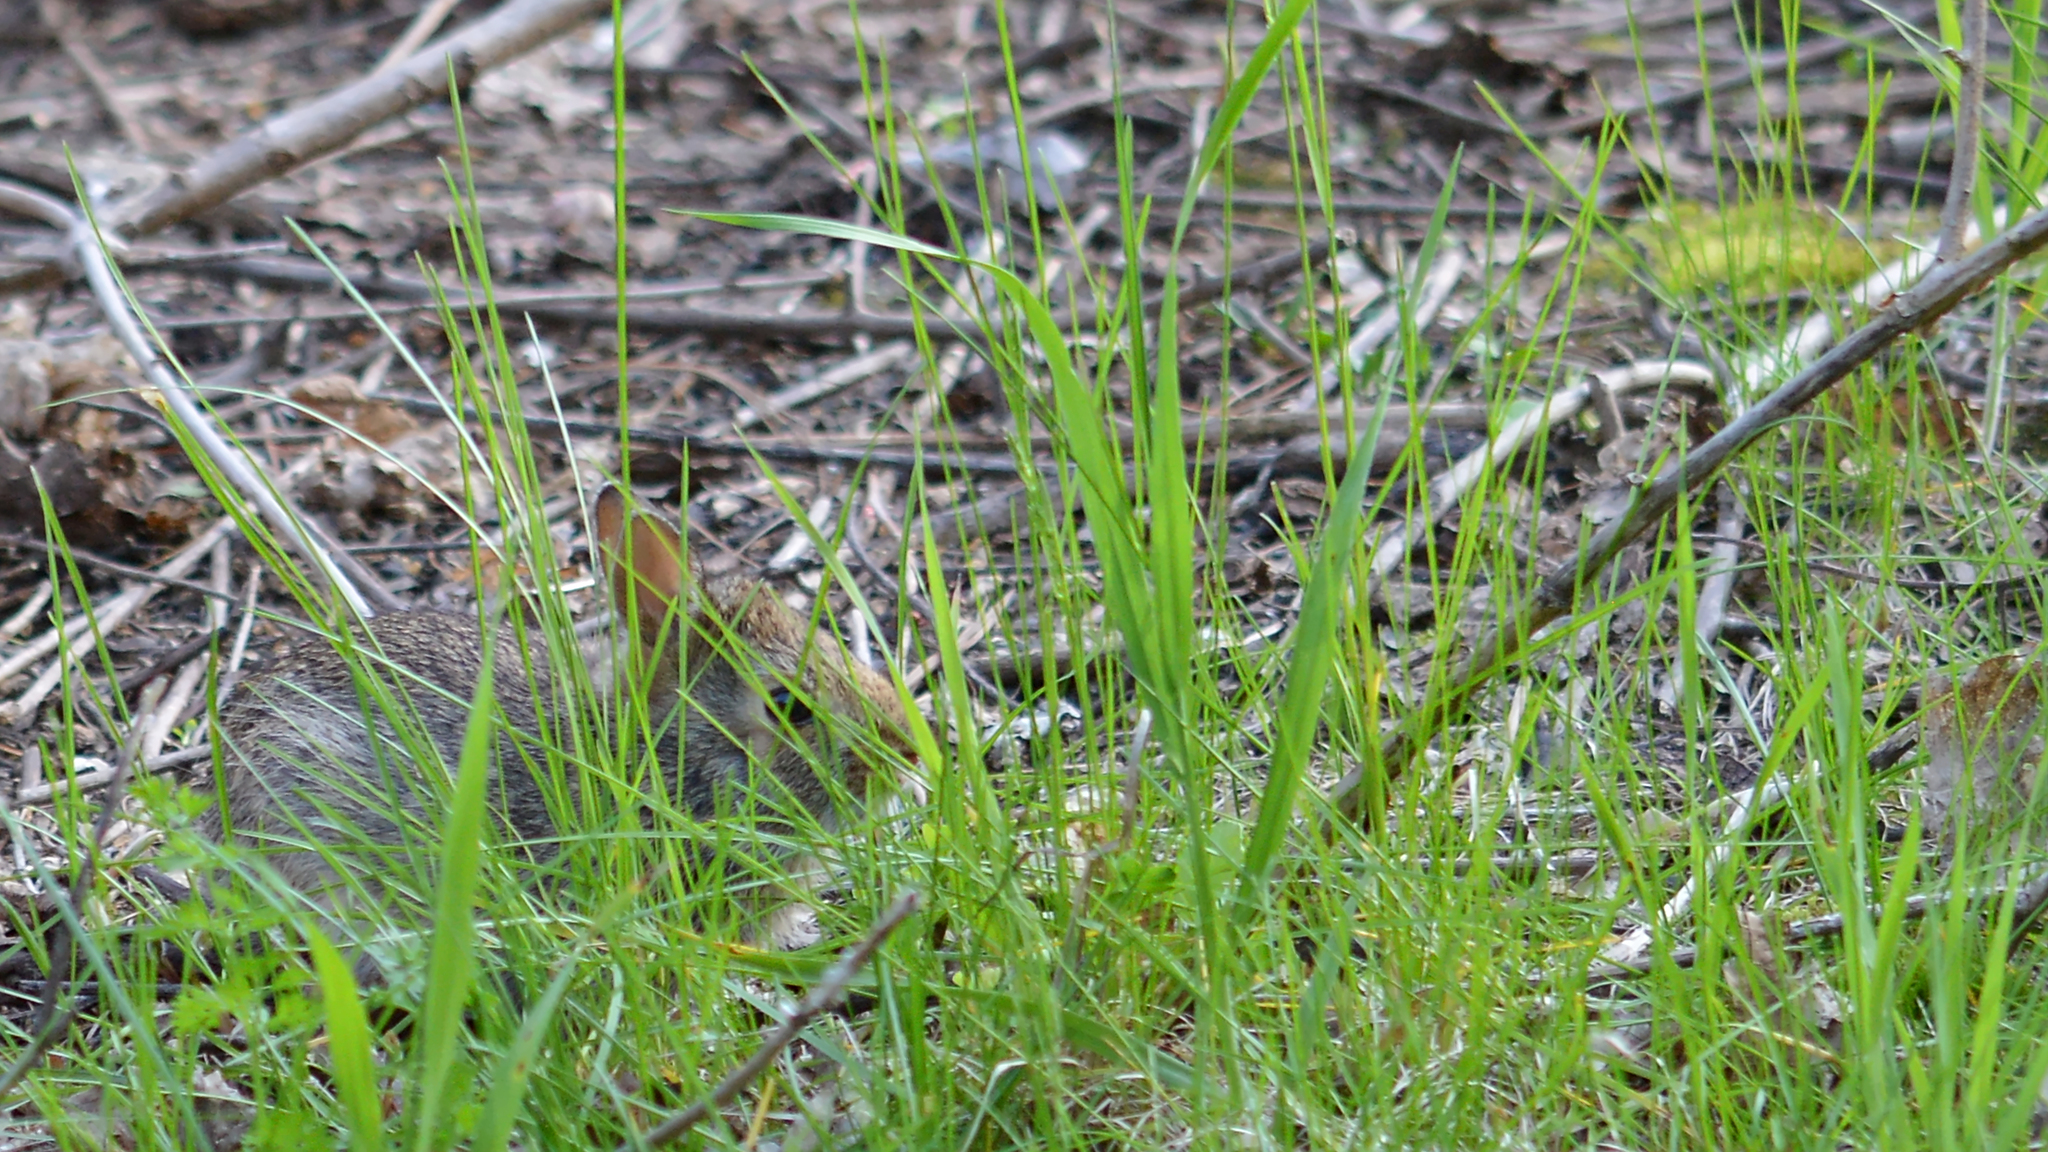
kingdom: Animalia
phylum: Chordata
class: Mammalia
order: Lagomorpha
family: Leporidae
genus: Sylvilagus
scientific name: Sylvilagus floridanus
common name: Eastern cottontail
